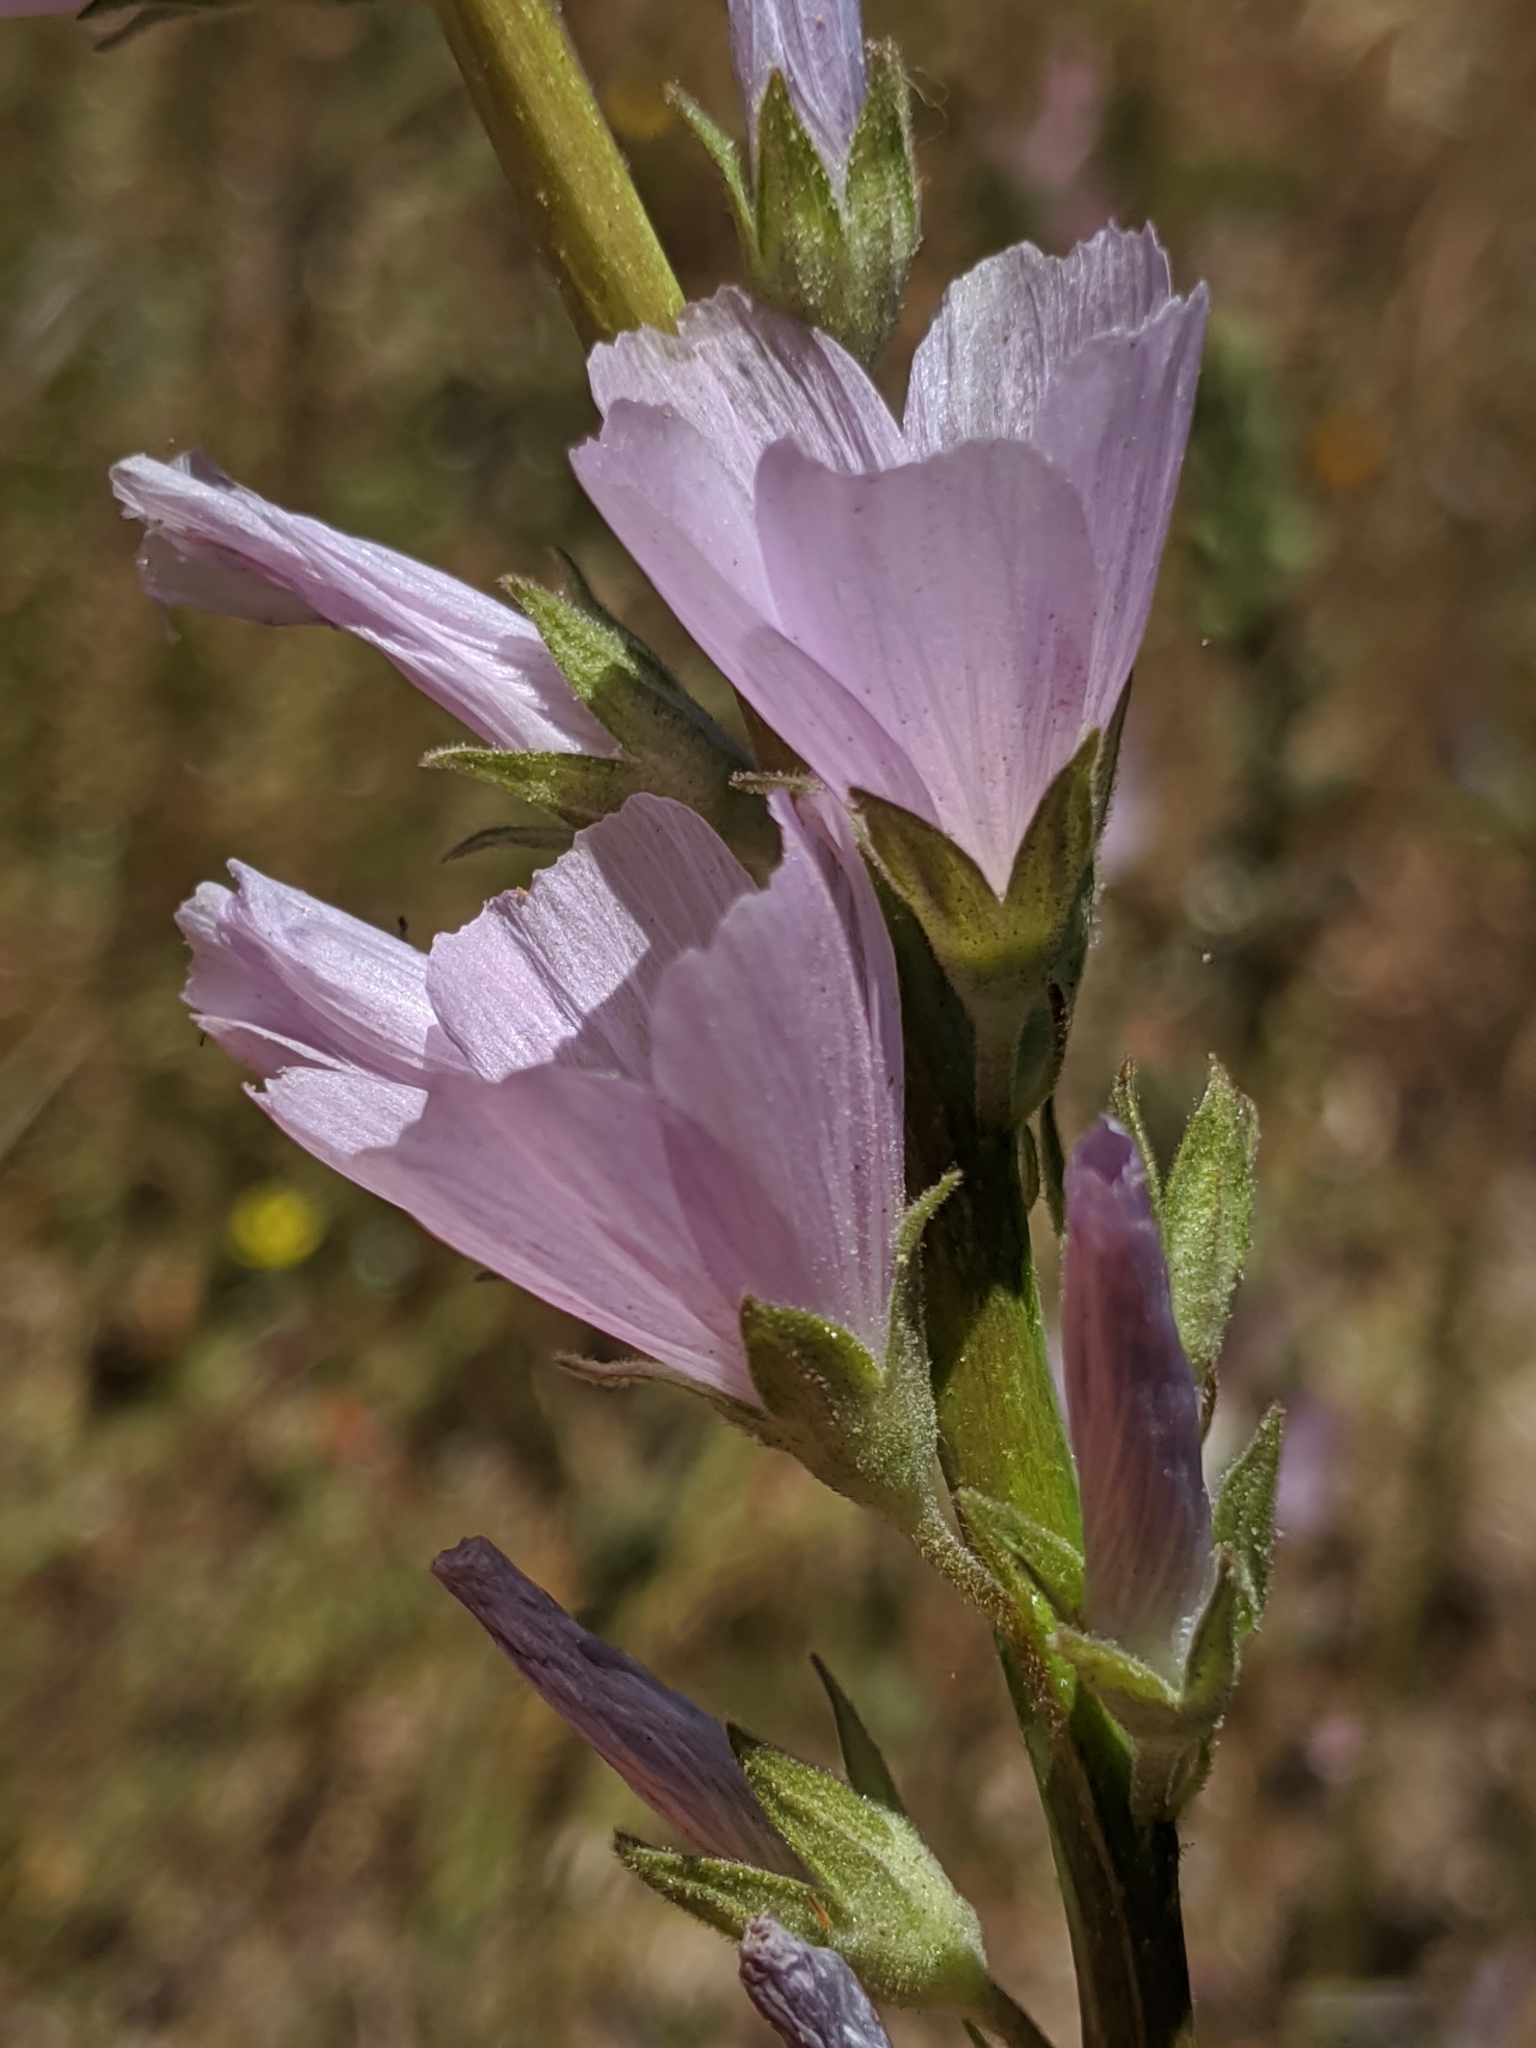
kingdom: Plantae
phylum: Tracheophyta
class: Magnoliopsida
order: Malvales
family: Malvaceae
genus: Sidalcea
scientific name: Sidalcea sparsifolia
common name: Southern checkerbloom
